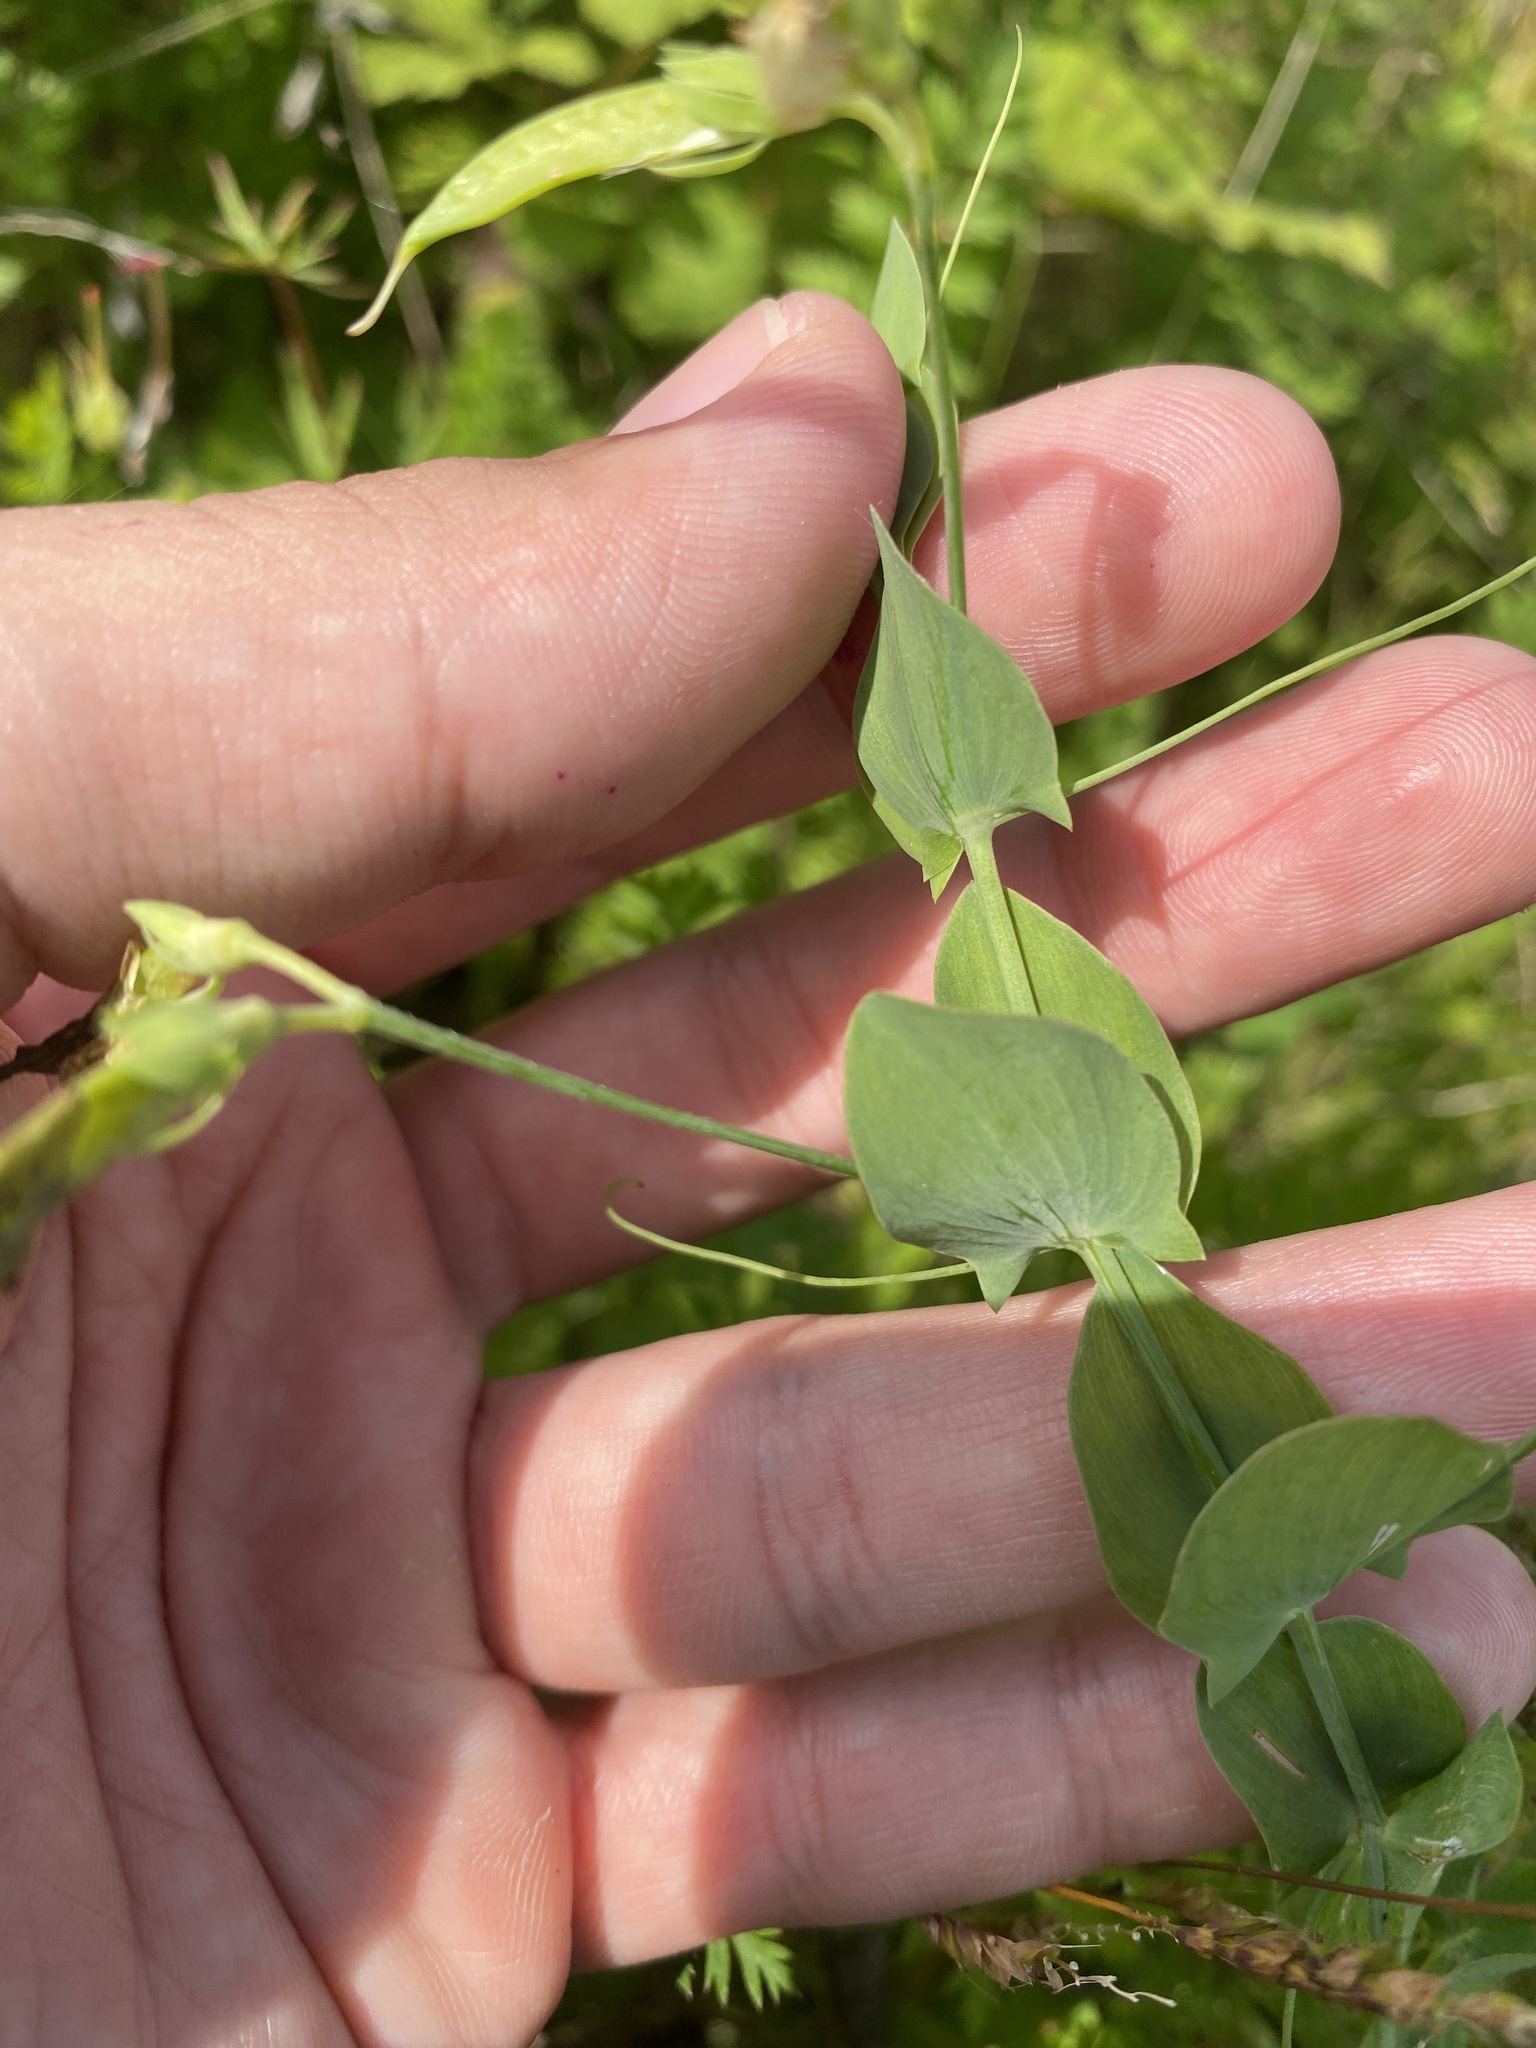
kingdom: Plantae
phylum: Tracheophyta
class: Magnoliopsida
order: Fabales
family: Fabaceae
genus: Lathyrus
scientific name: Lathyrus aphaca
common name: Yellow vetchling
